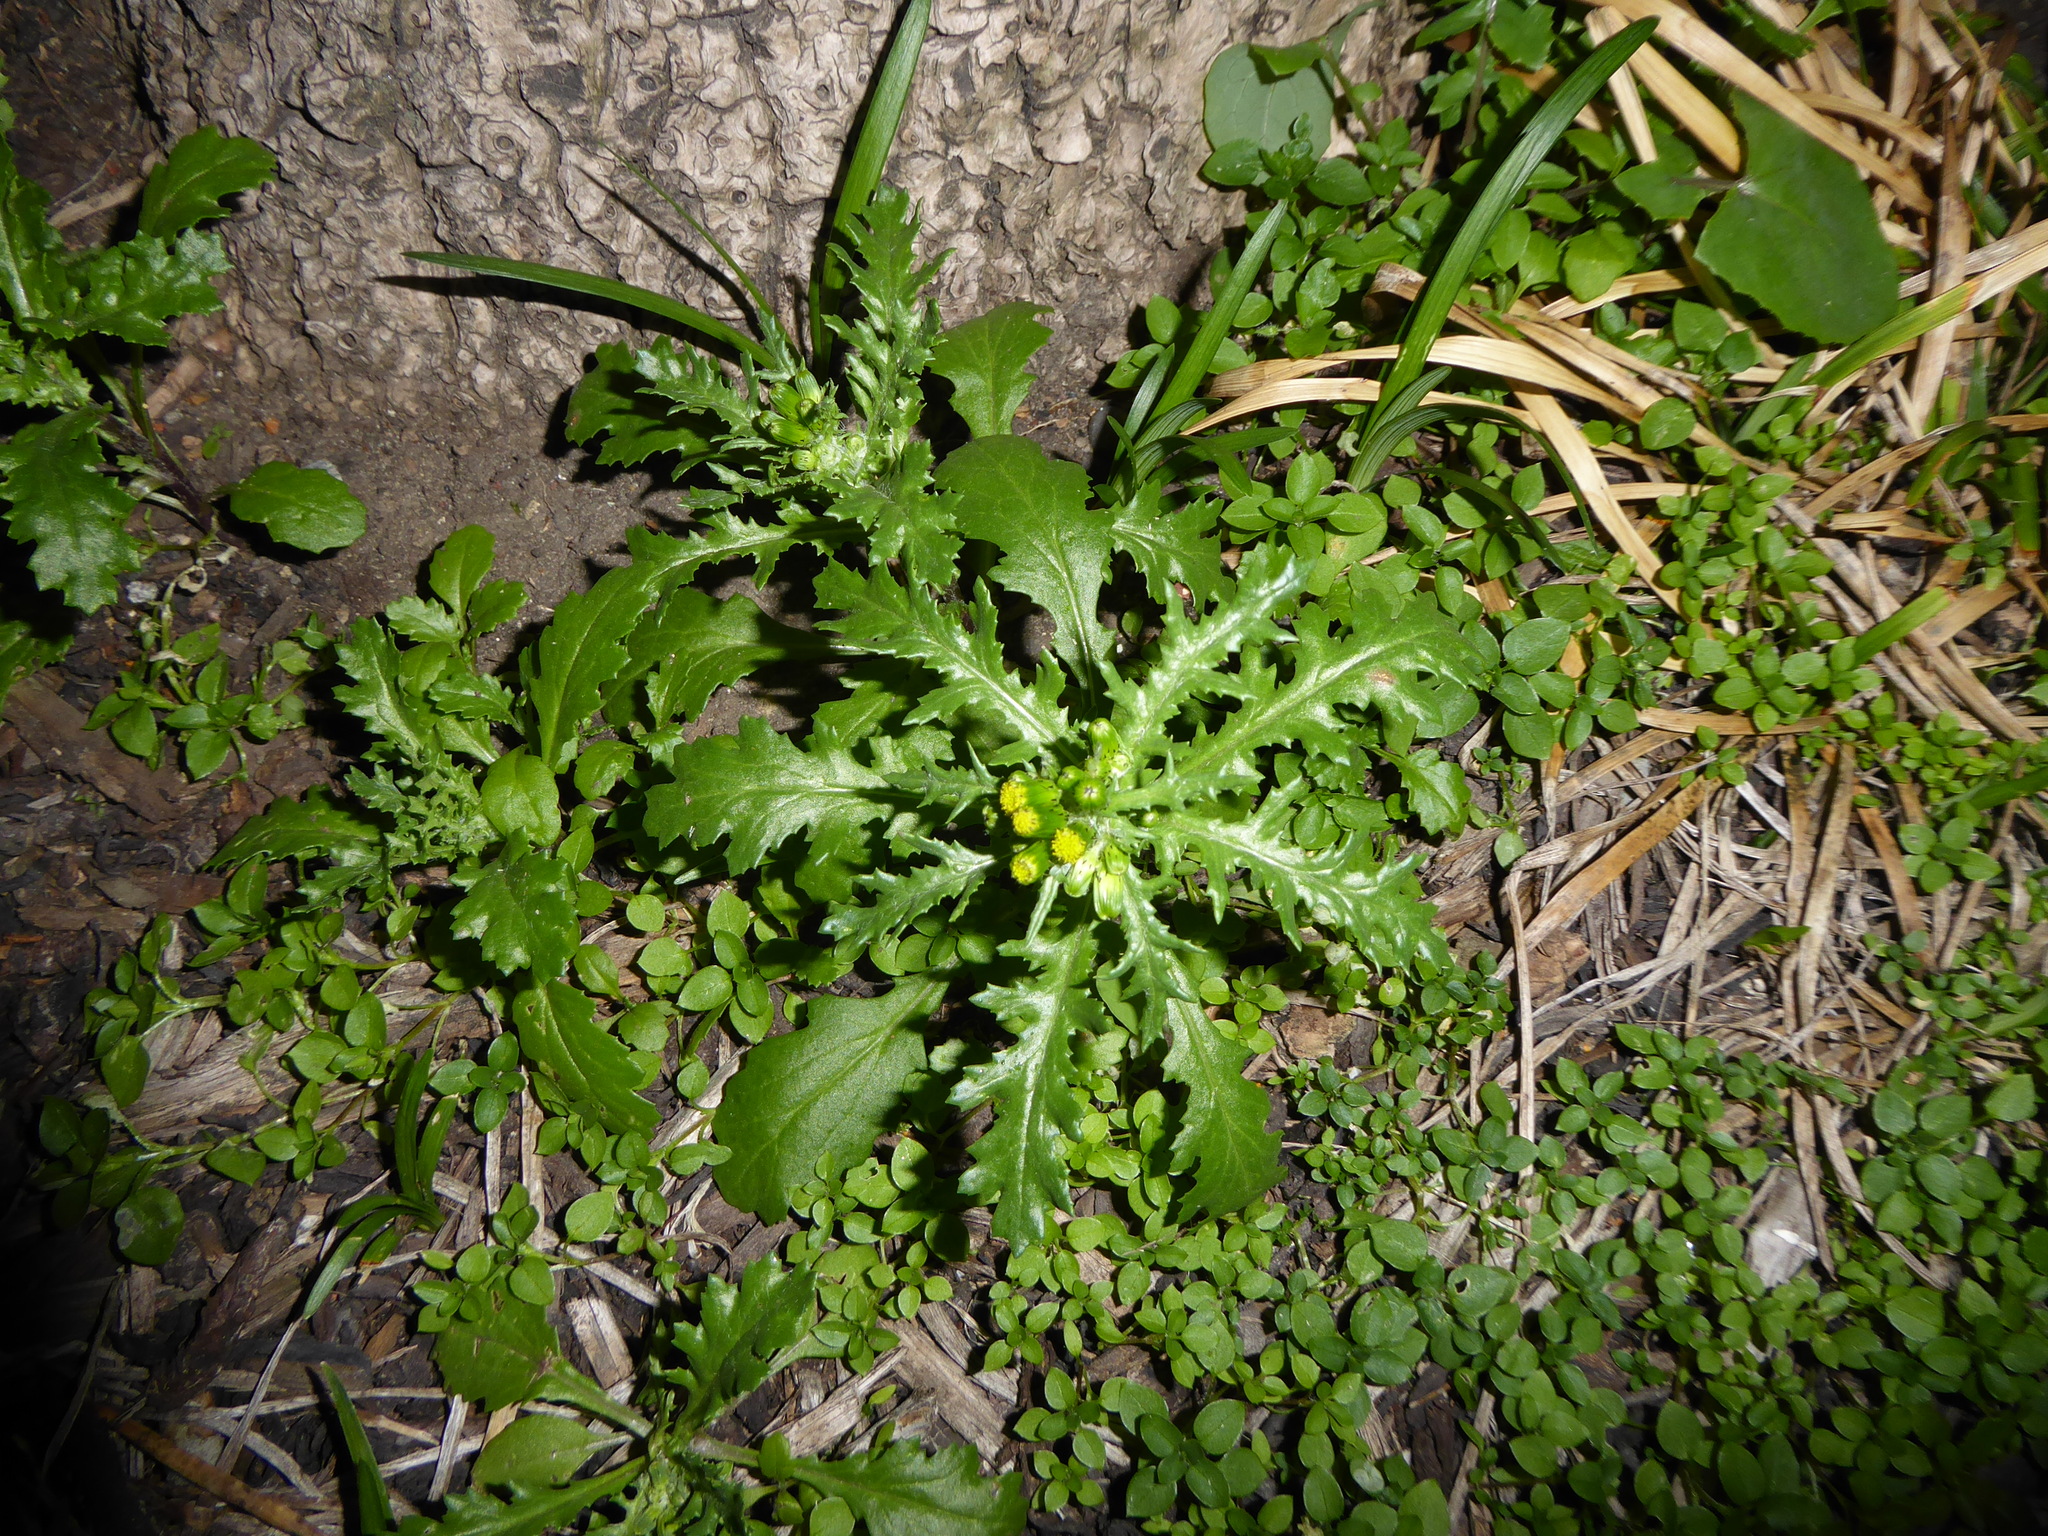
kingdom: Plantae
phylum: Tracheophyta
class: Magnoliopsida
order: Asterales
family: Asteraceae
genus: Senecio
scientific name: Senecio vulgaris
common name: Old-man-in-the-spring
